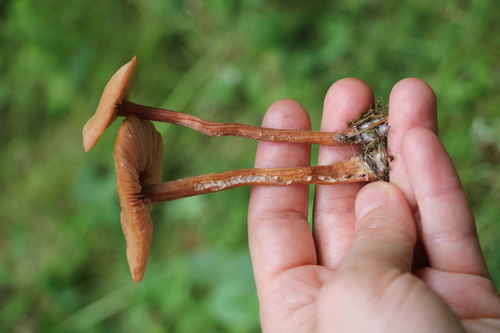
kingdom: Fungi
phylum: Basidiomycota
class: Agaricomycetes
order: Agaricales
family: Hydnangiaceae
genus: Laccaria
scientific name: Laccaria proxima
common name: Scurfy deceiver
